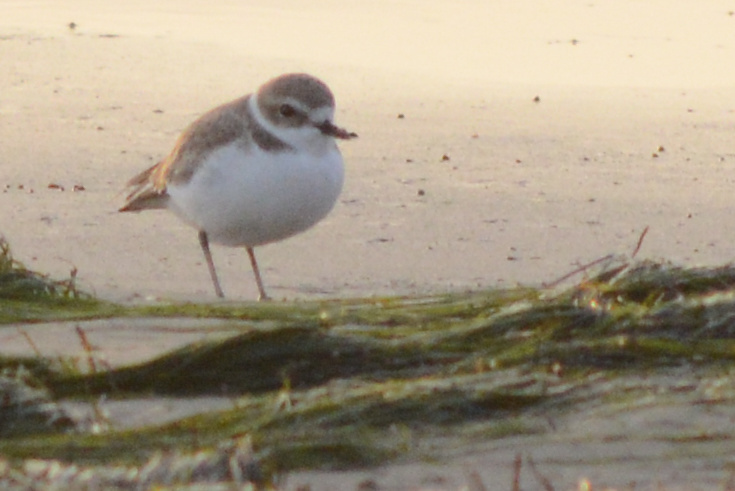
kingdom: Animalia
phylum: Chordata
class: Aves
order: Charadriiformes
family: Charadriidae
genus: Anarhynchus
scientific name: Anarhynchus
